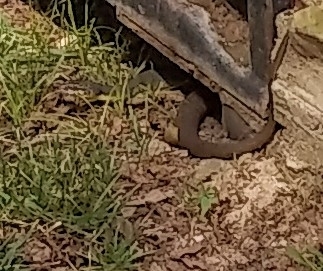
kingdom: Animalia
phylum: Chordata
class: Squamata
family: Colubridae
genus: Nerodia
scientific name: Nerodia erythrogaster
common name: Plainbelly water snake
